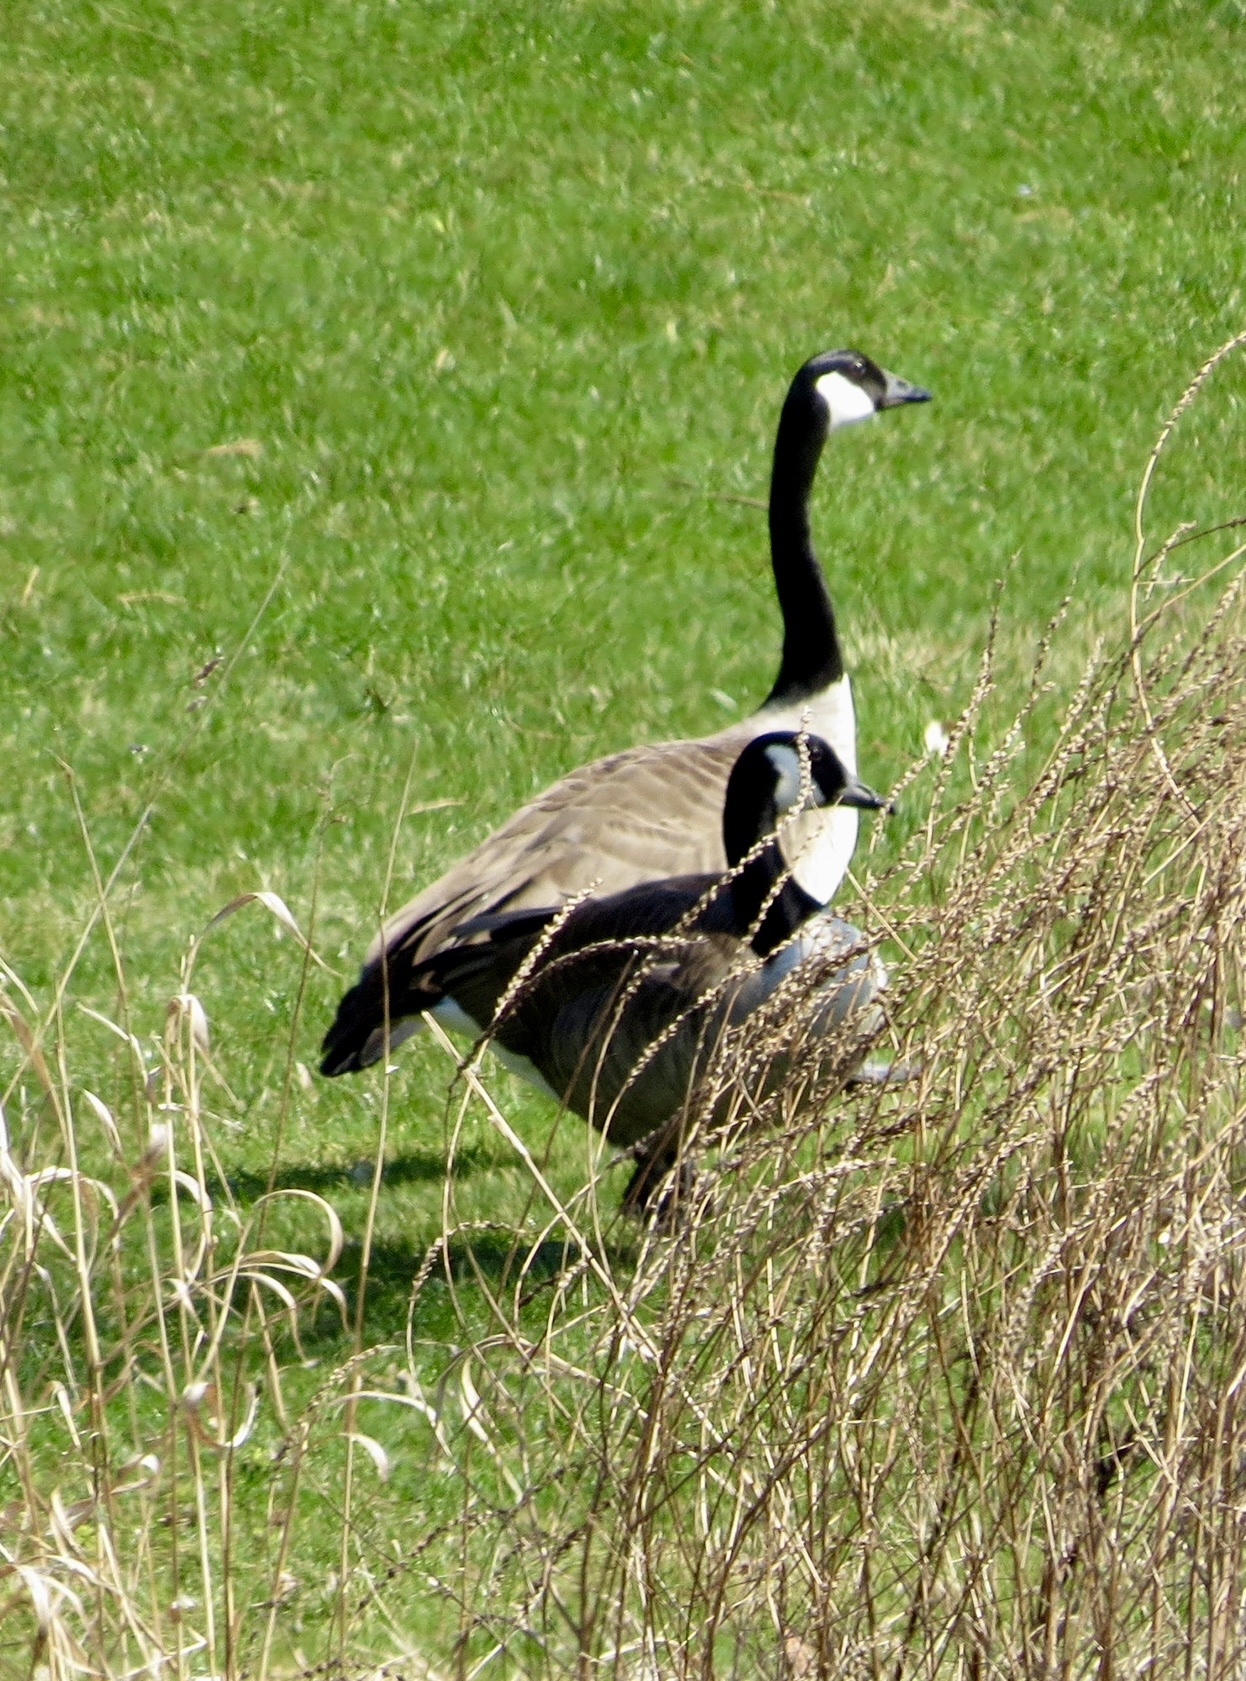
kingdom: Animalia
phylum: Chordata
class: Aves
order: Anseriformes
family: Anatidae
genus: Branta
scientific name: Branta canadensis
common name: Canada goose
